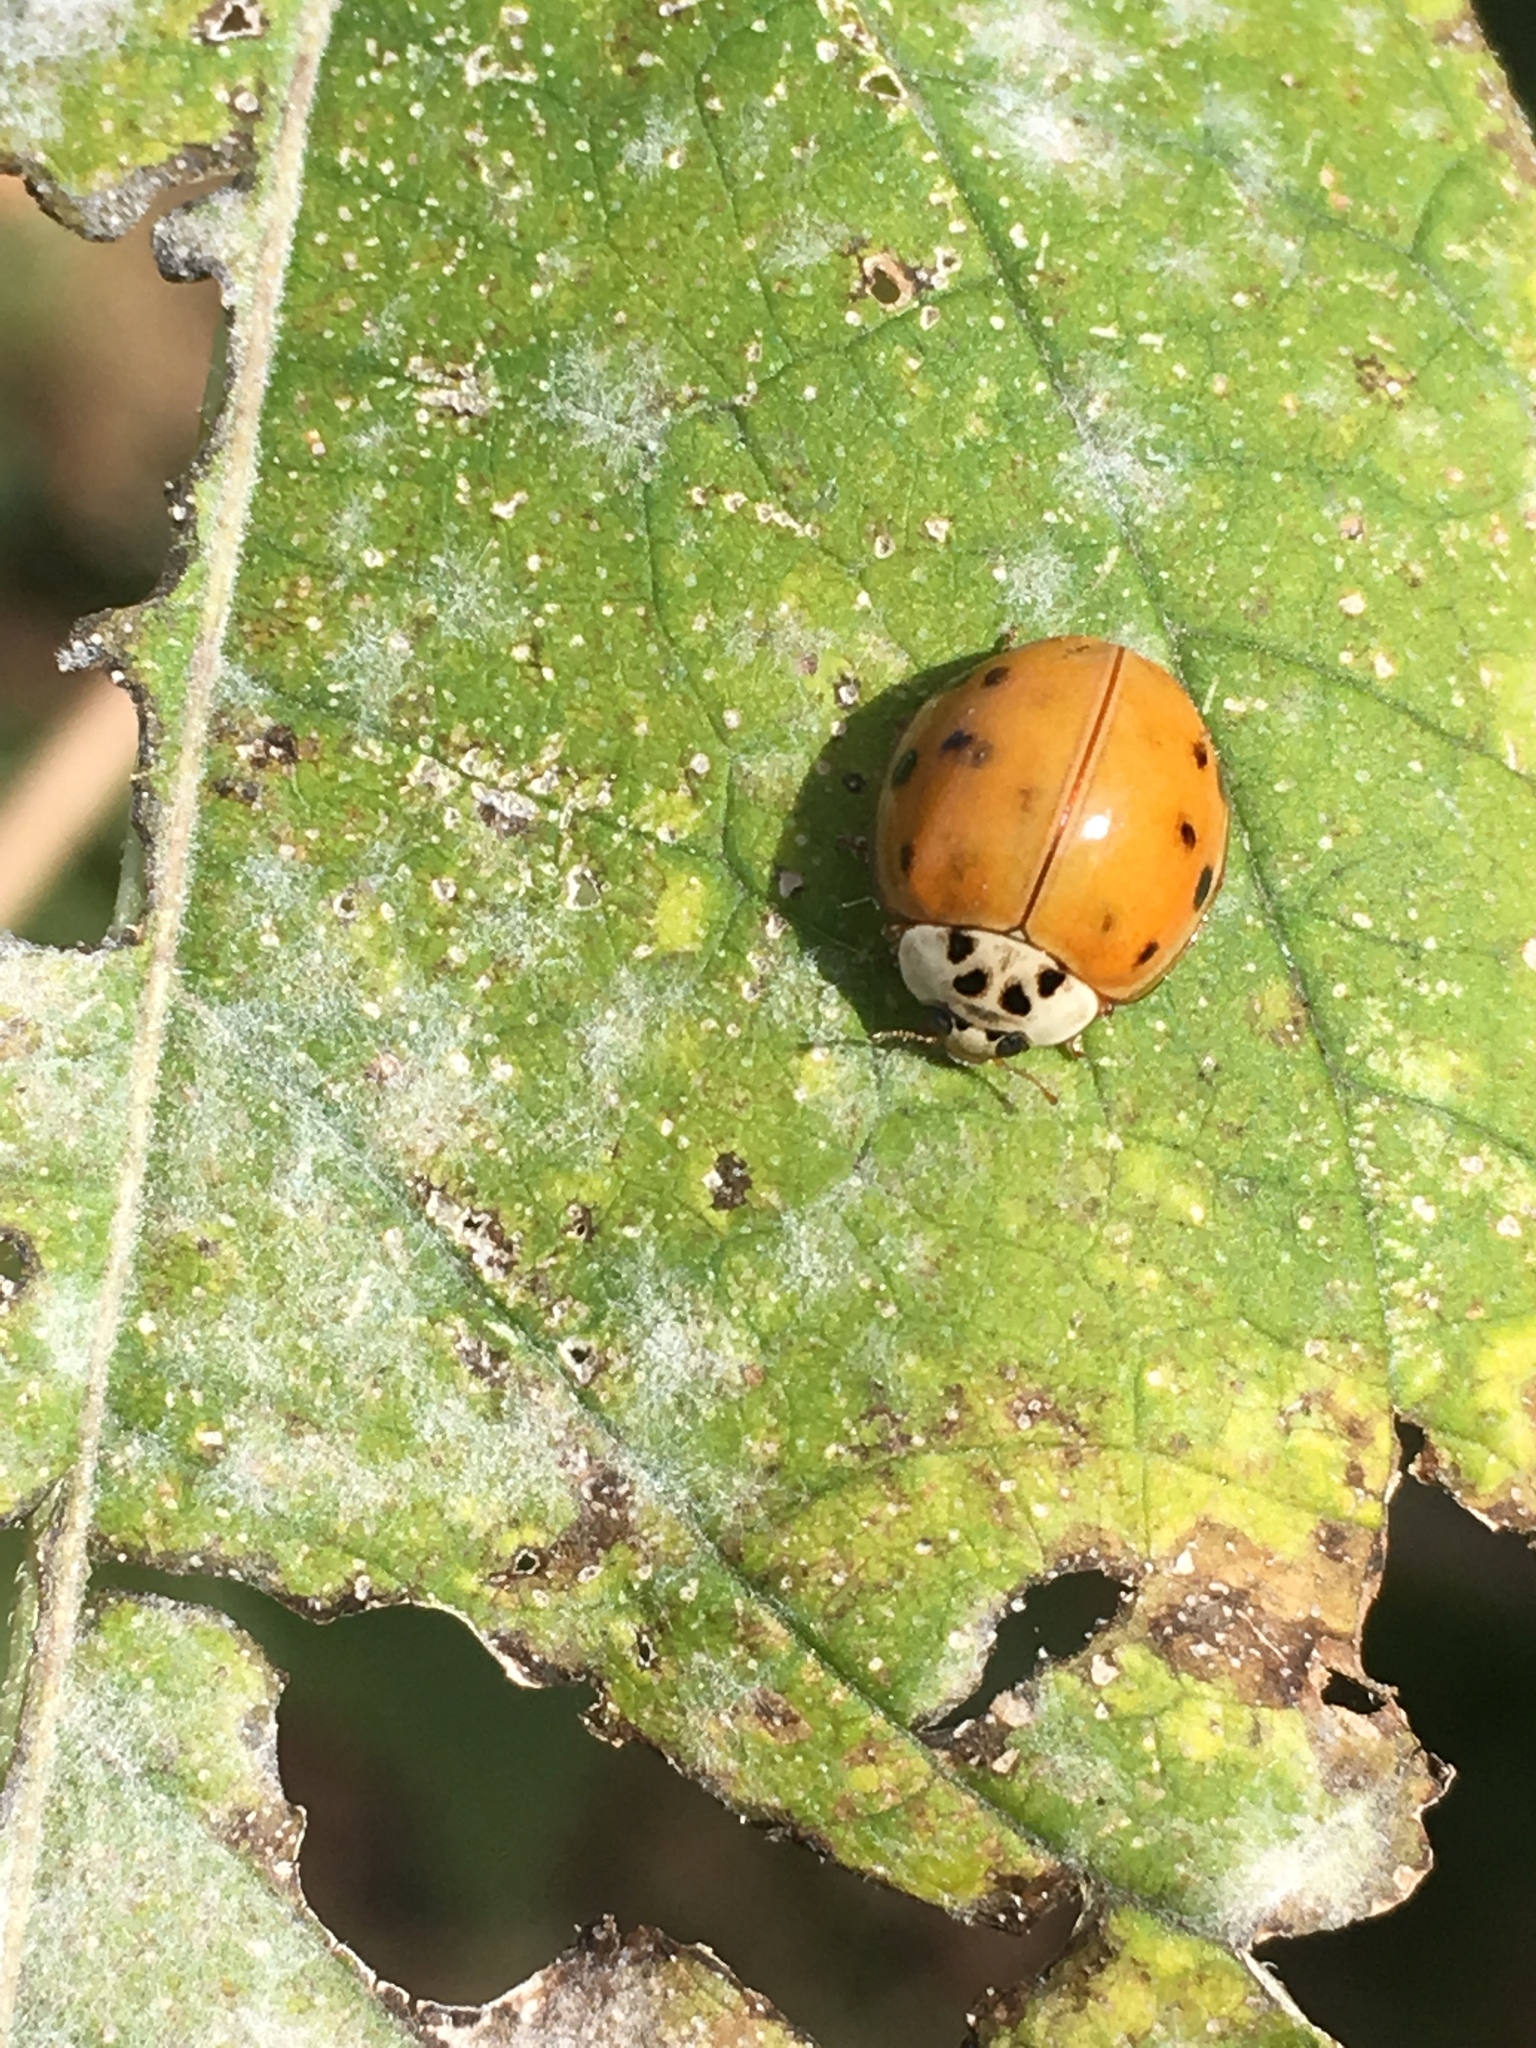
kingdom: Animalia
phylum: Arthropoda
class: Insecta
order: Coleoptera
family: Coccinellidae
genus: Harmonia
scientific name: Harmonia axyridis
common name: Harlequin ladybird
